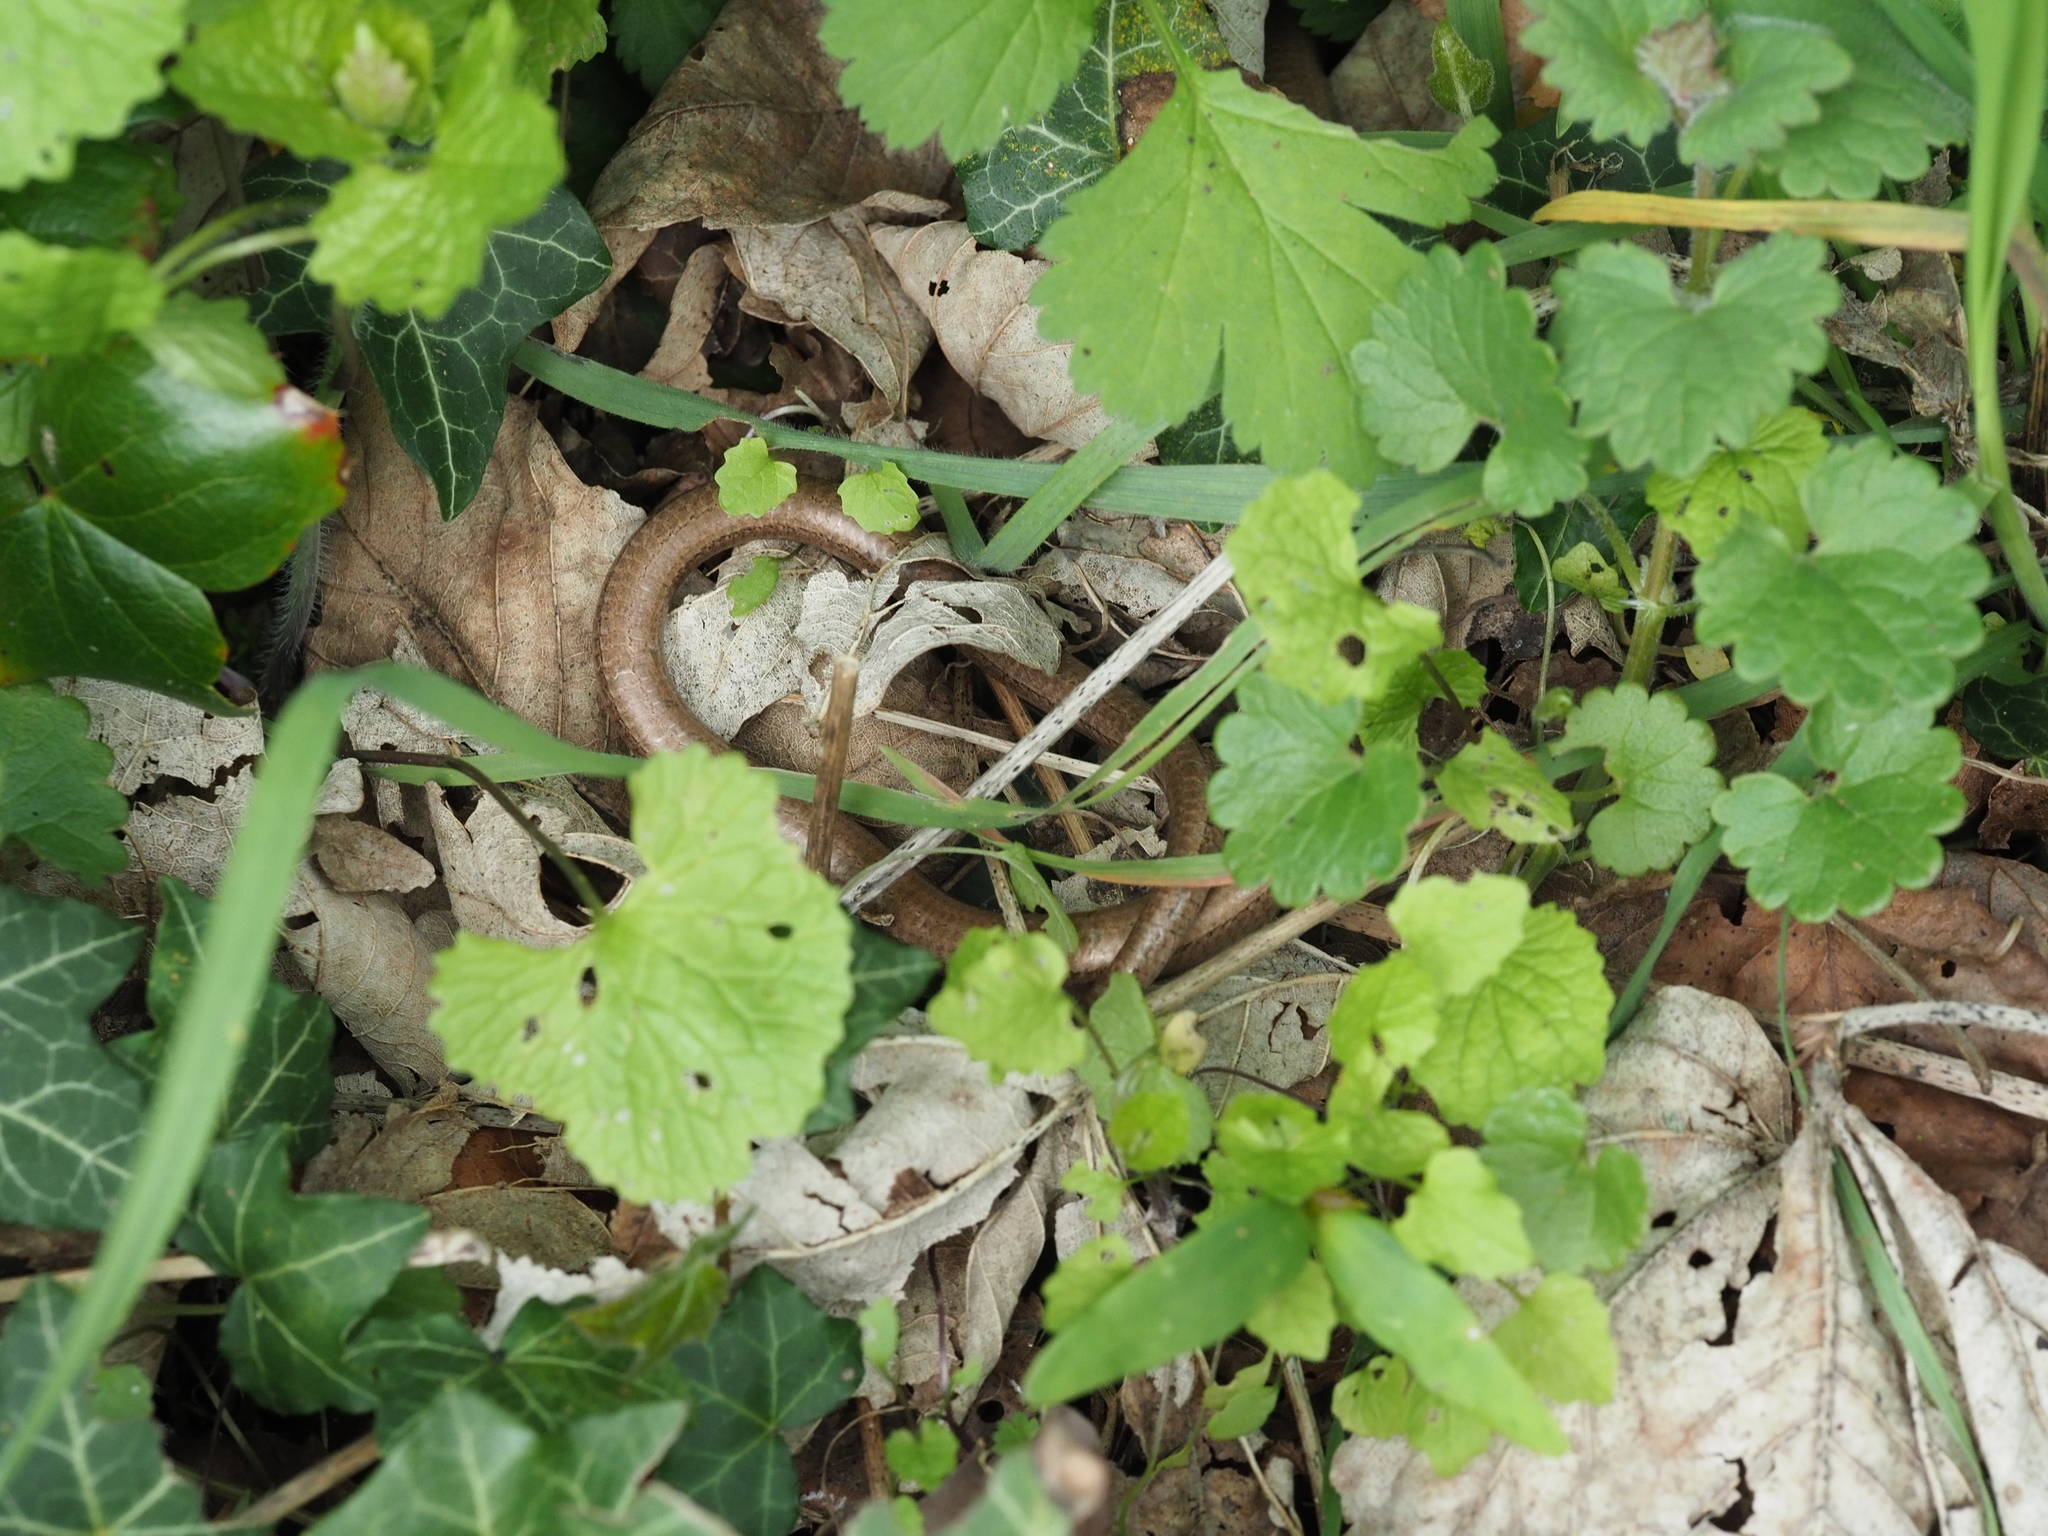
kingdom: Animalia
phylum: Chordata
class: Squamata
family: Anguidae
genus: Anguis
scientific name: Anguis fragilis
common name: Slow worm
